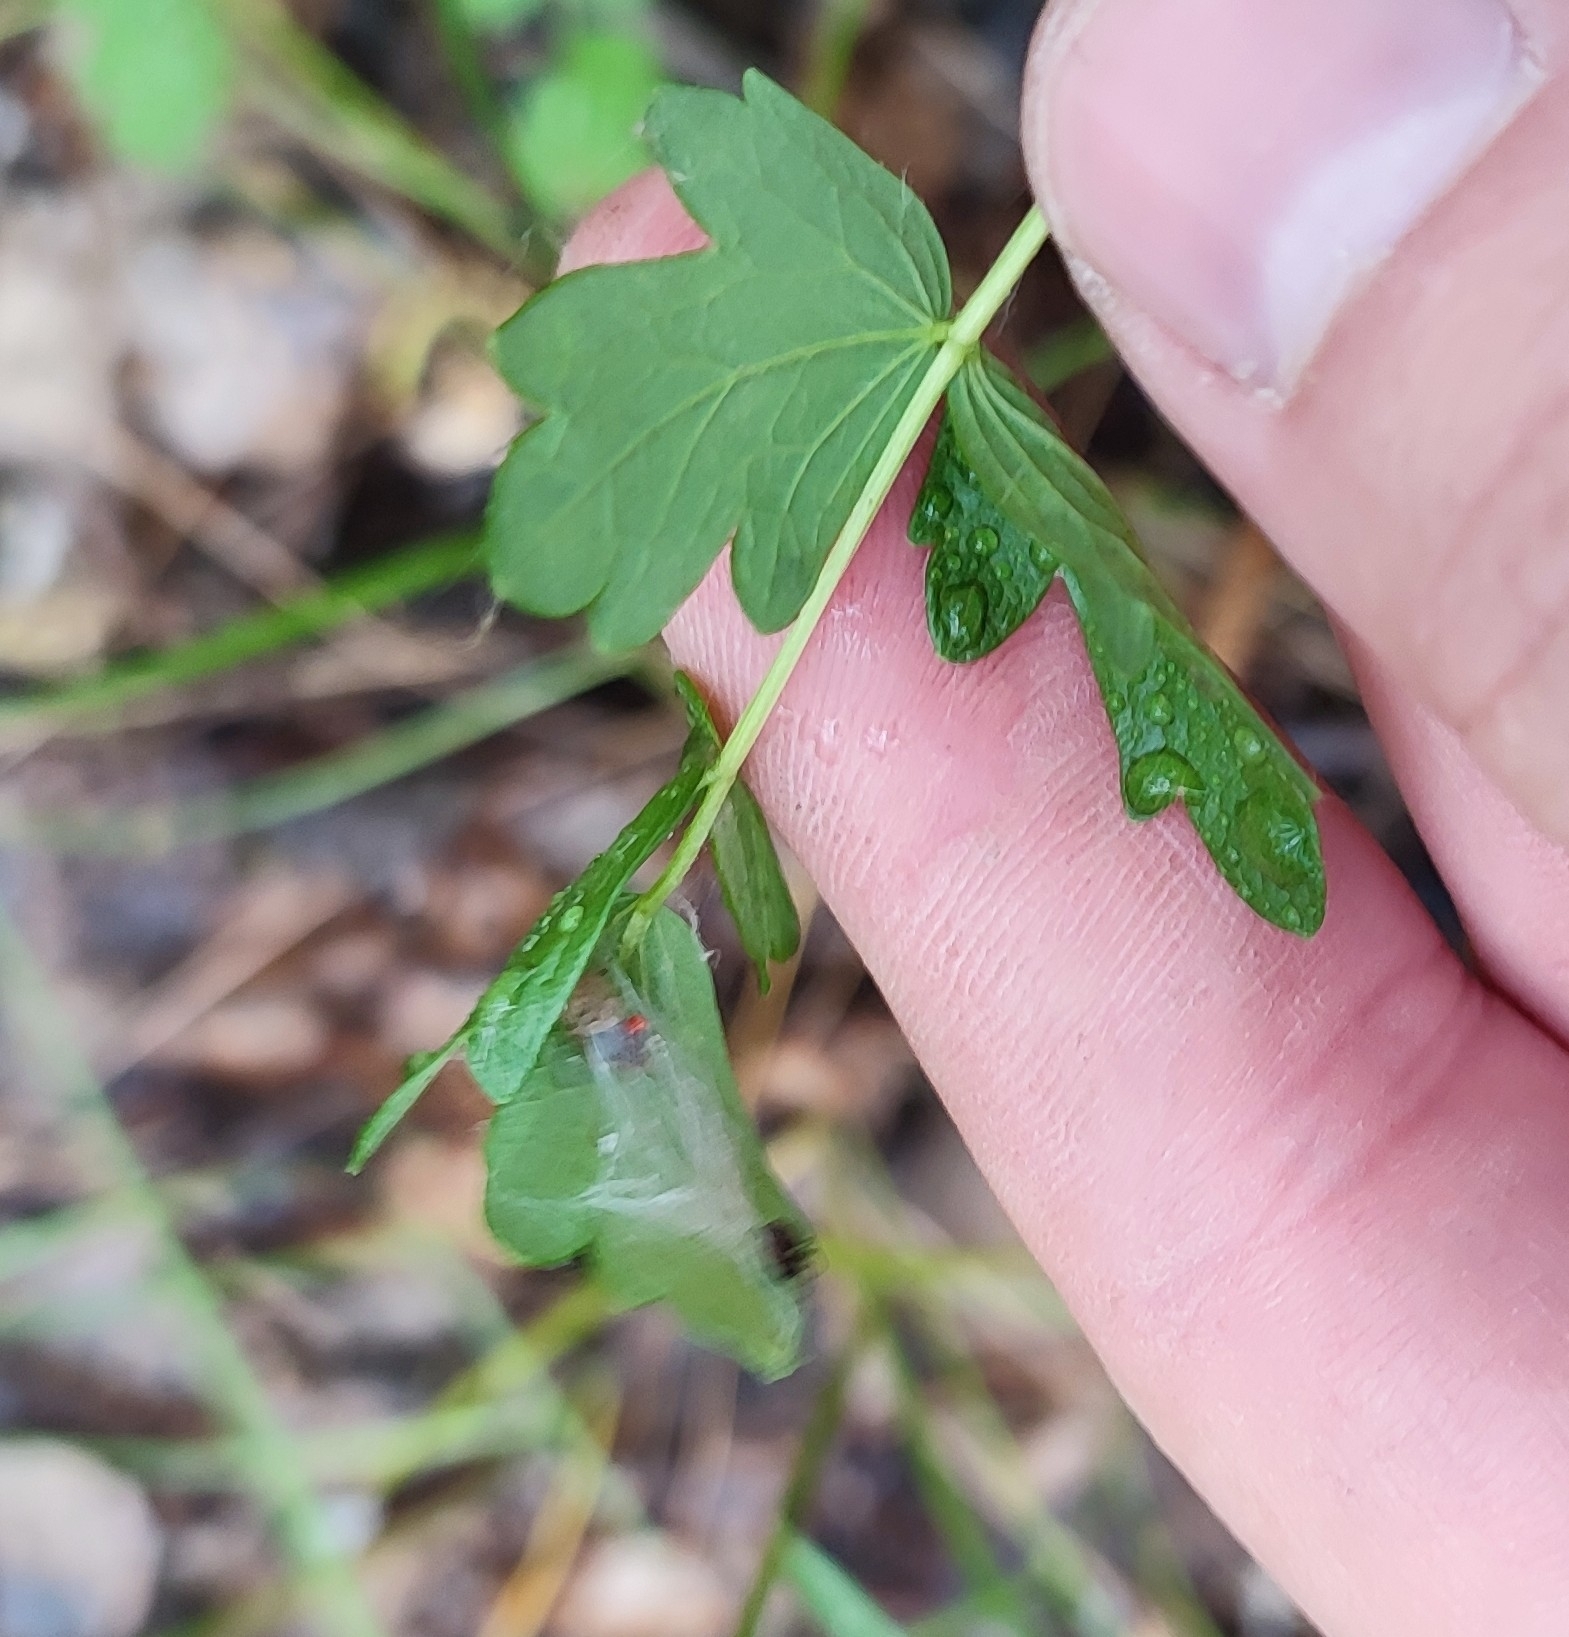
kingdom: Plantae
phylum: Tracheophyta
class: Magnoliopsida
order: Ranunculales
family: Ranunculaceae
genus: Thalictrum
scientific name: Thalictrum minus
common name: Lesser meadow-rue
